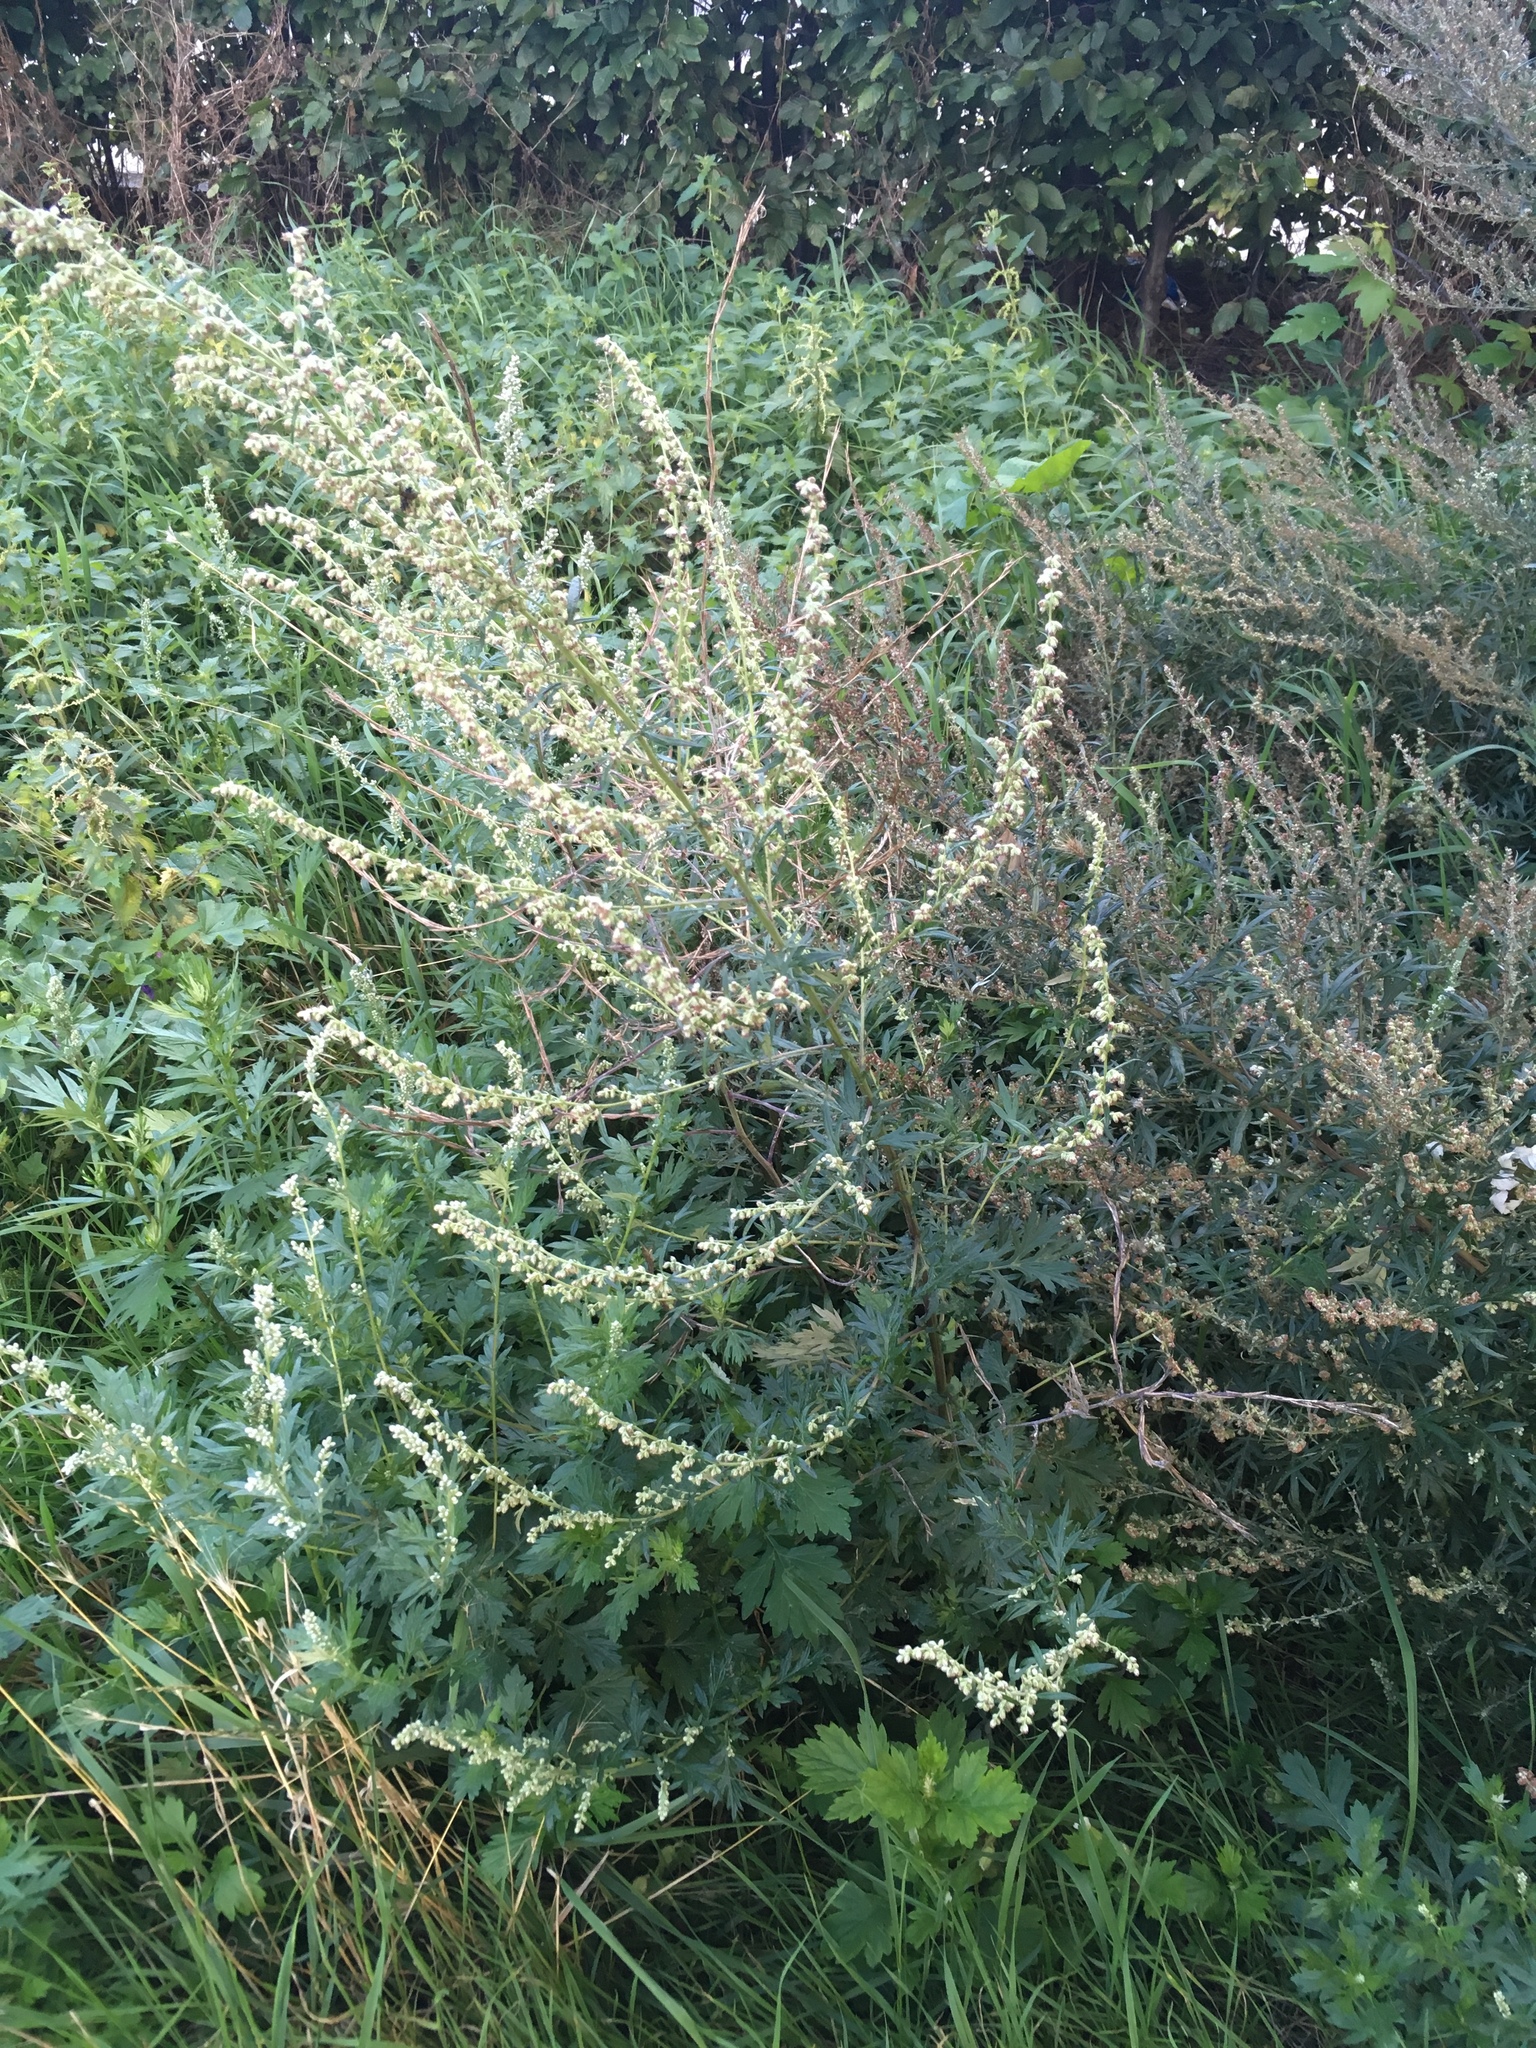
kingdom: Plantae
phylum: Tracheophyta
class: Magnoliopsida
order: Asterales
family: Asteraceae
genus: Artemisia
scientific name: Artemisia vulgaris
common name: Mugwort
